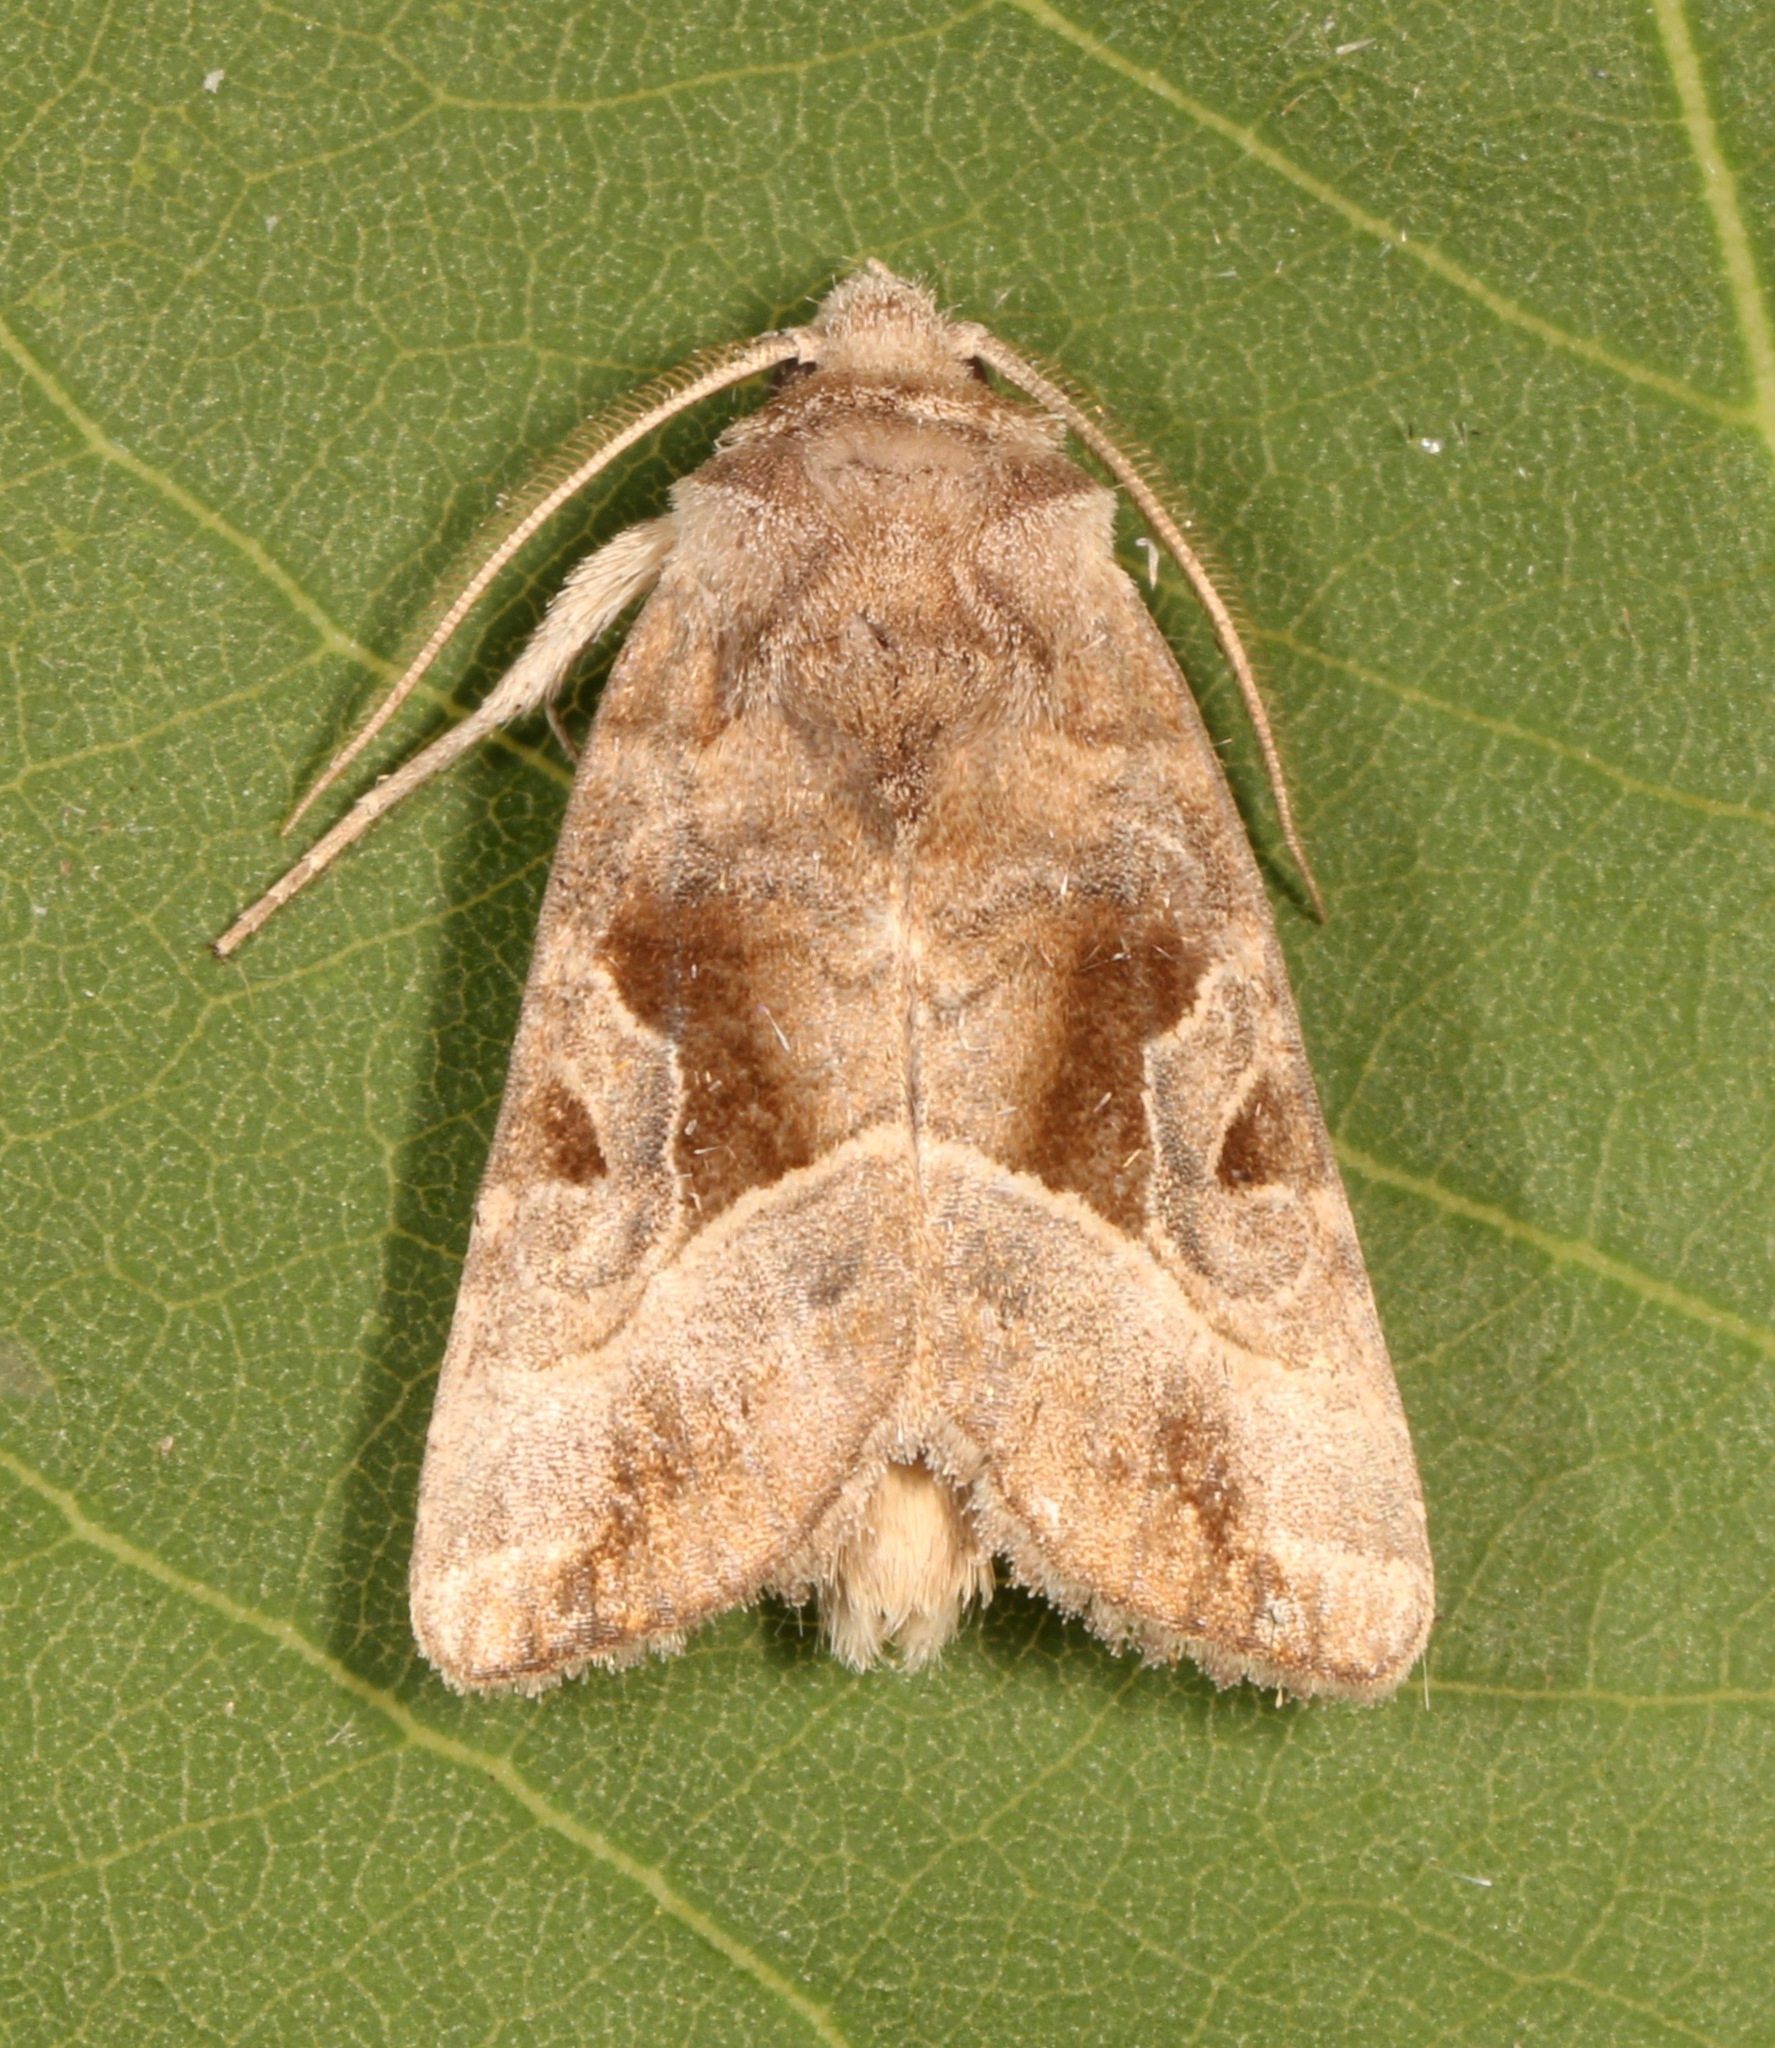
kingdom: Animalia
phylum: Arthropoda
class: Insecta
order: Lepidoptera
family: Noctuidae
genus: Hexorthodes
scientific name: Hexorthodes accurata
